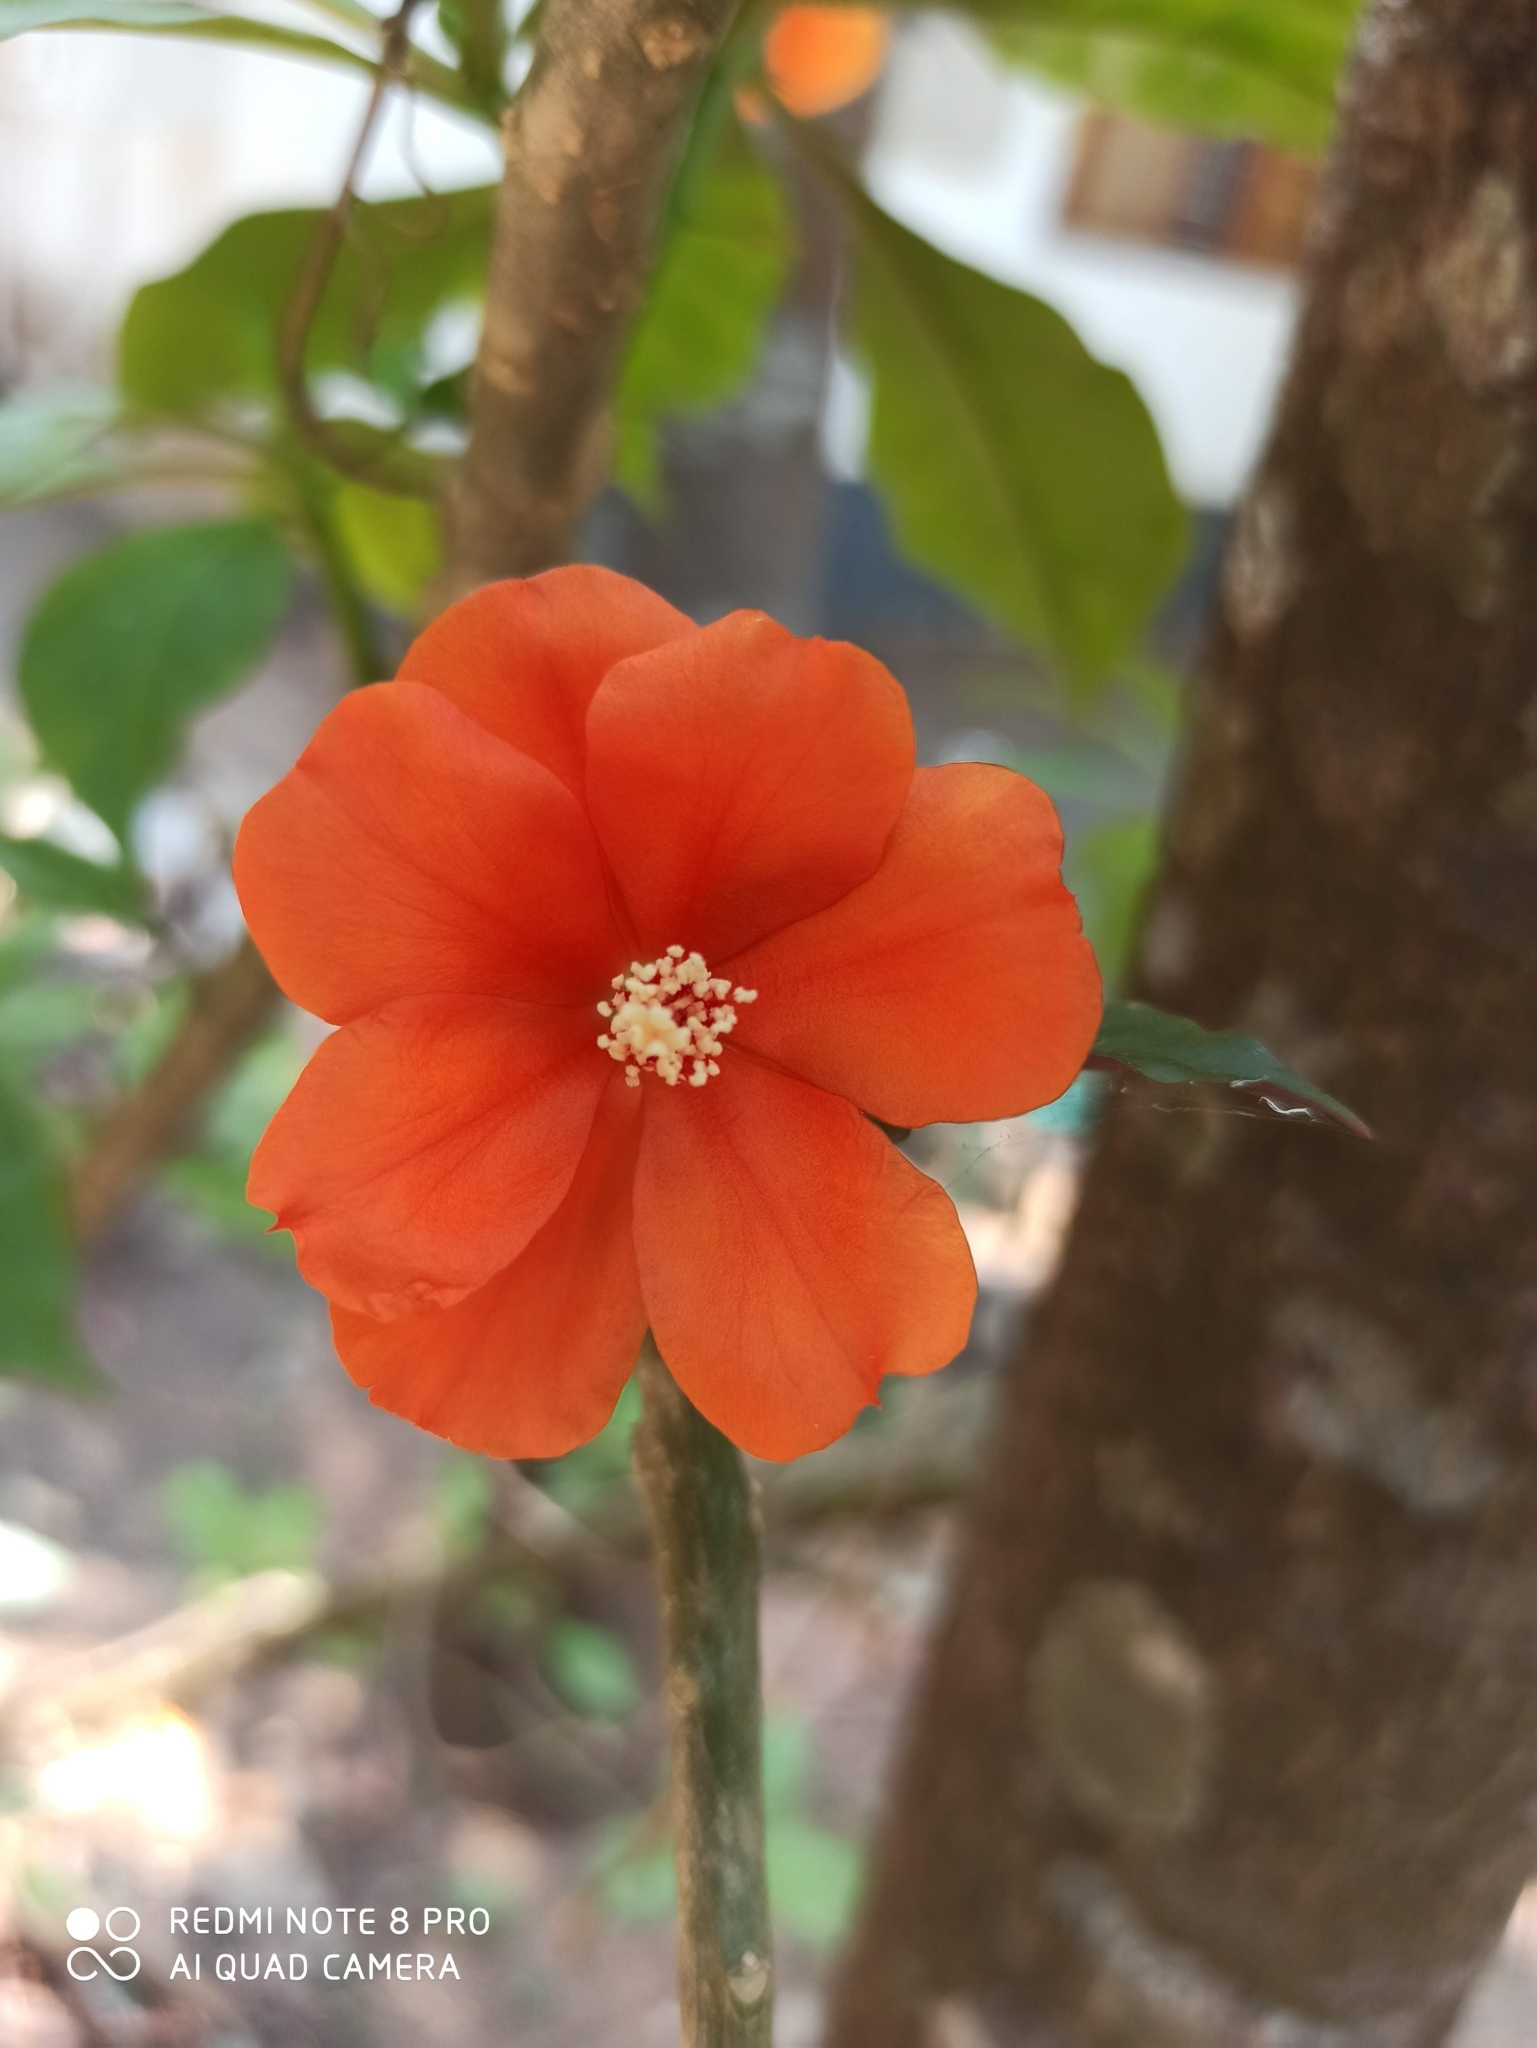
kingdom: Plantae
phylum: Tracheophyta
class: Magnoliopsida
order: Caryophyllales
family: Cactaceae
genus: Leuenbergeria
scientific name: Leuenbergeria bleo
